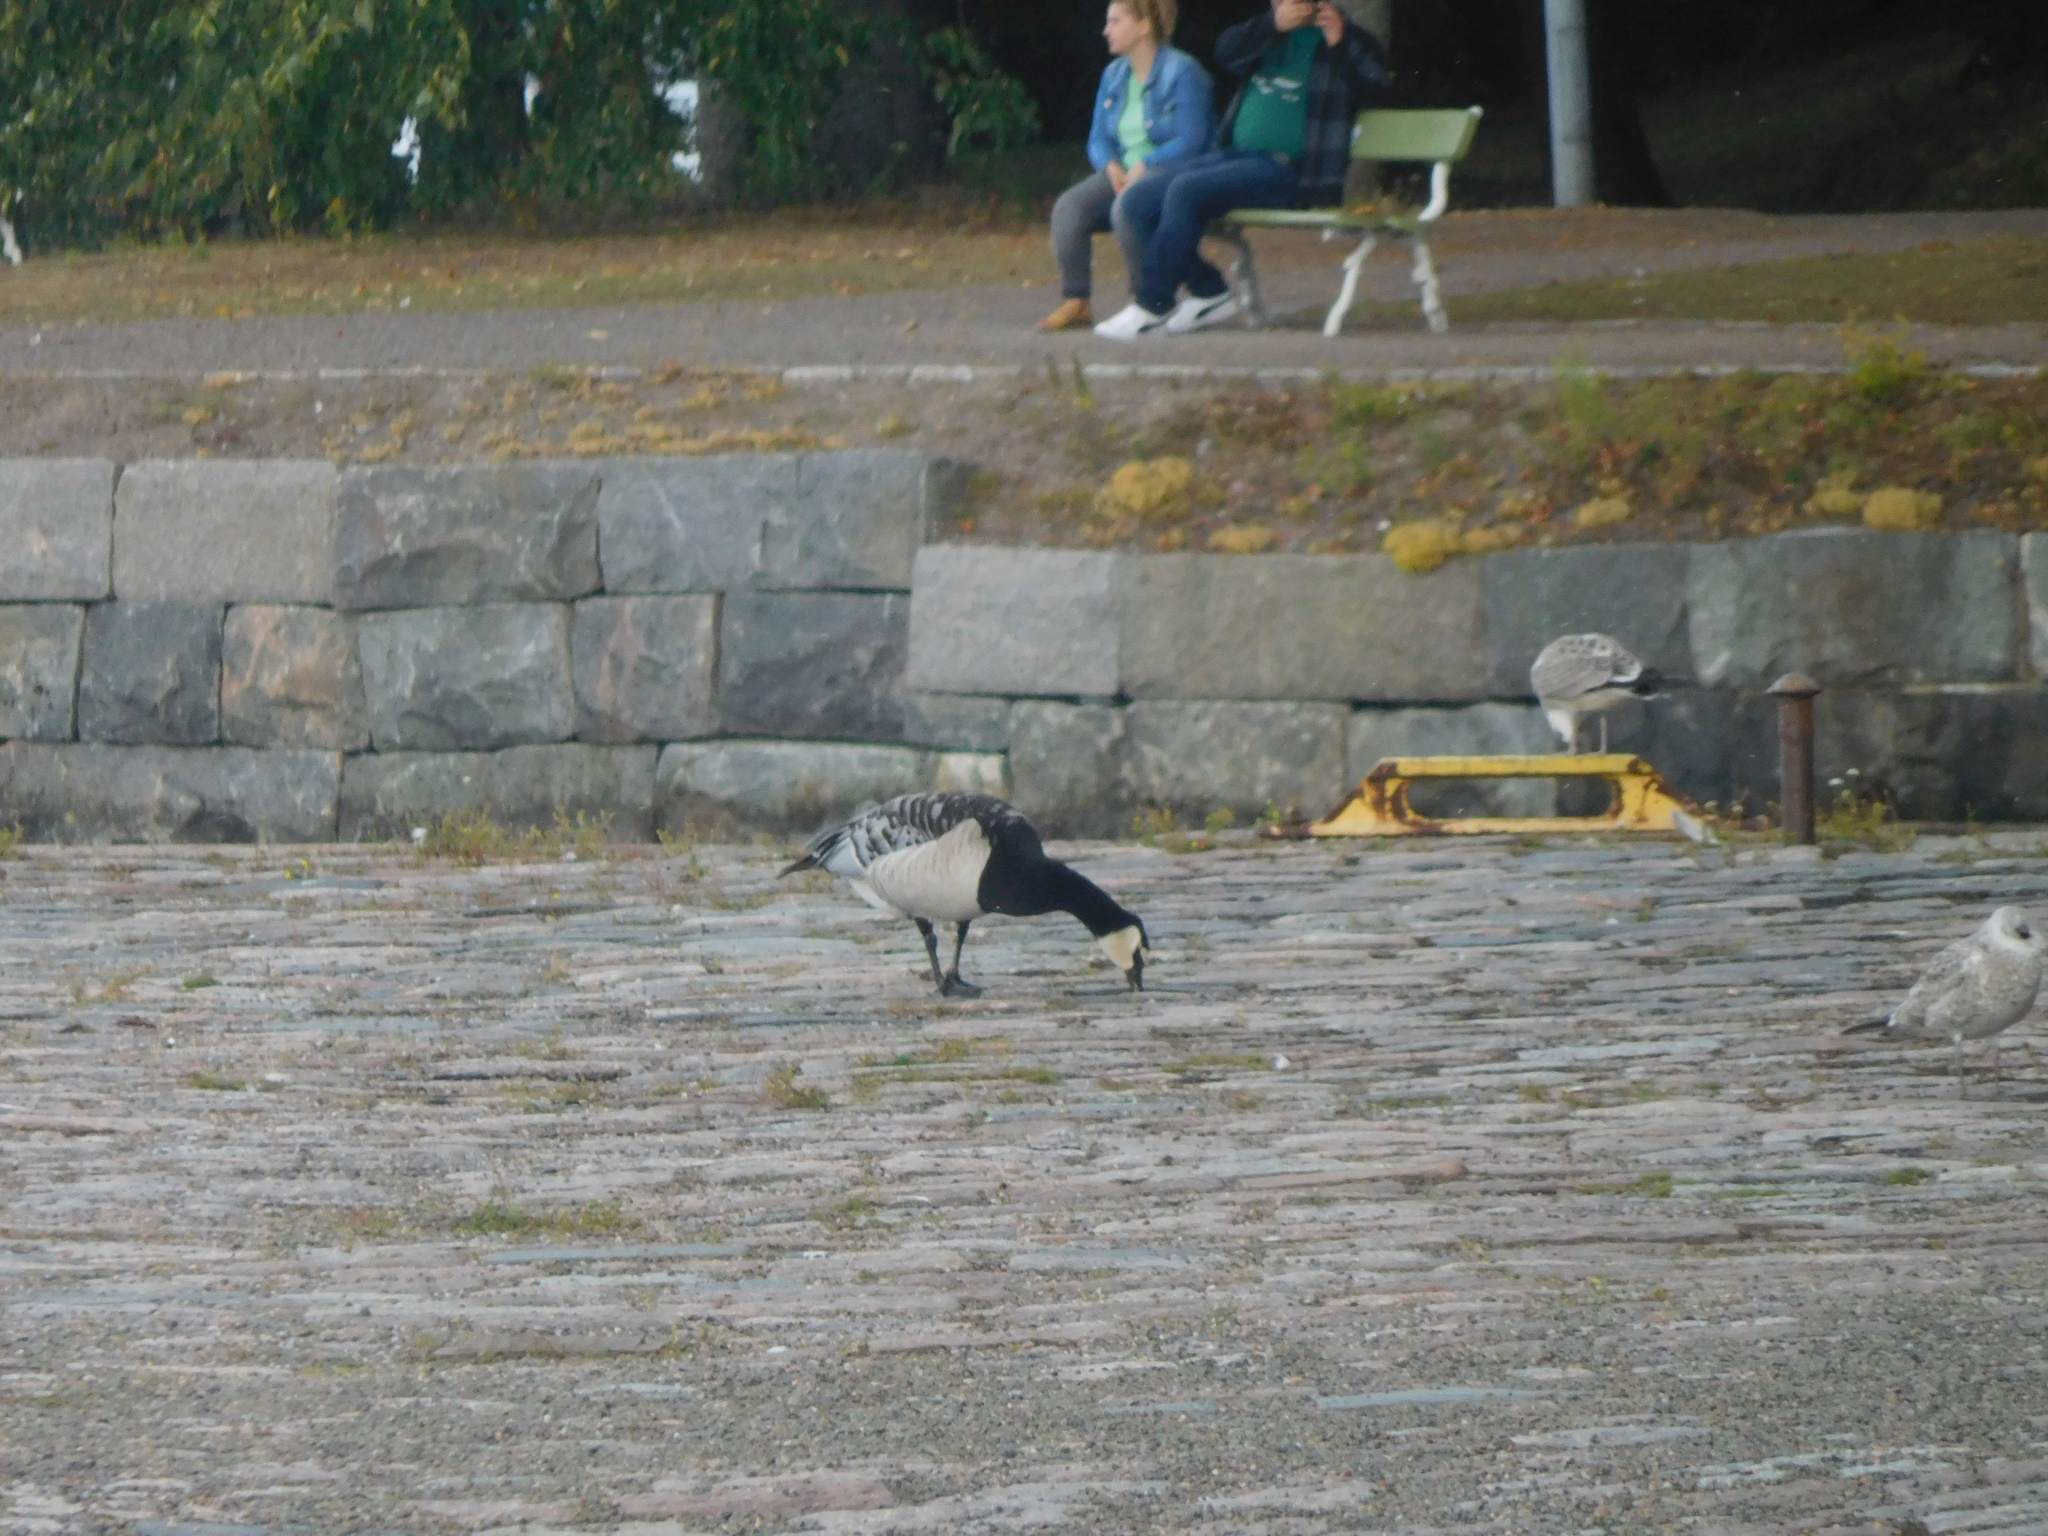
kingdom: Animalia
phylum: Chordata
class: Aves
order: Anseriformes
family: Anatidae
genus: Branta
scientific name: Branta leucopsis
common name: Barnacle goose
